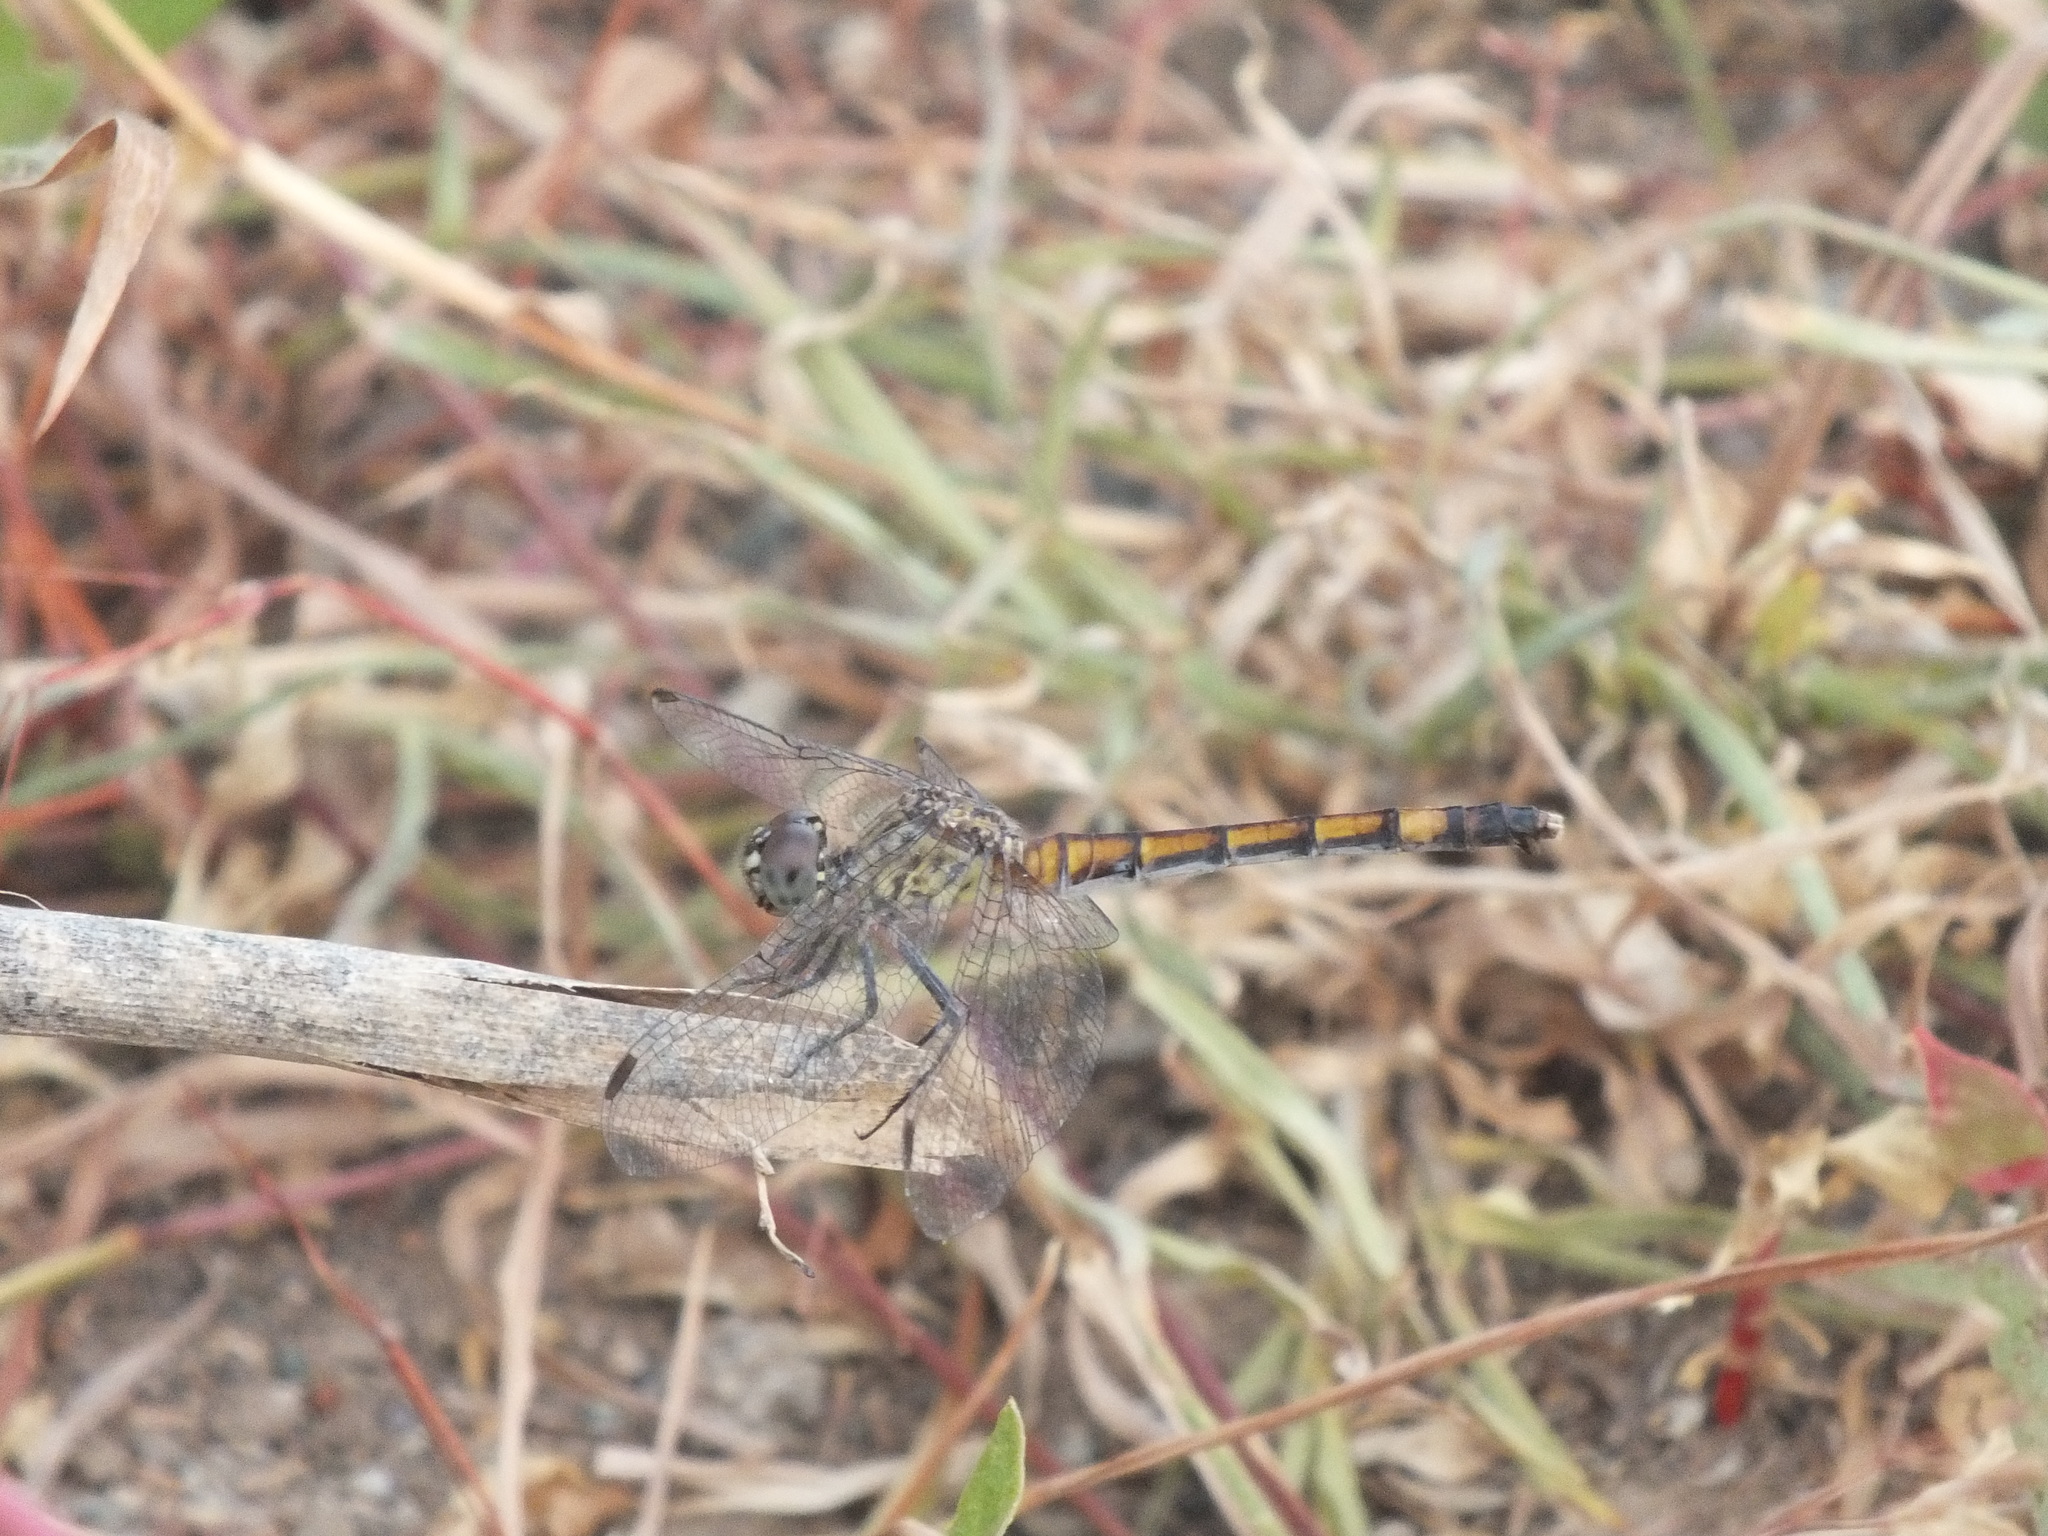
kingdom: Animalia
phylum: Arthropoda
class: Insecta
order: Odonata
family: Libellulidae
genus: Erythrodiplax
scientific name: Erythrodiplax berenice
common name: Seaside dragonlet
